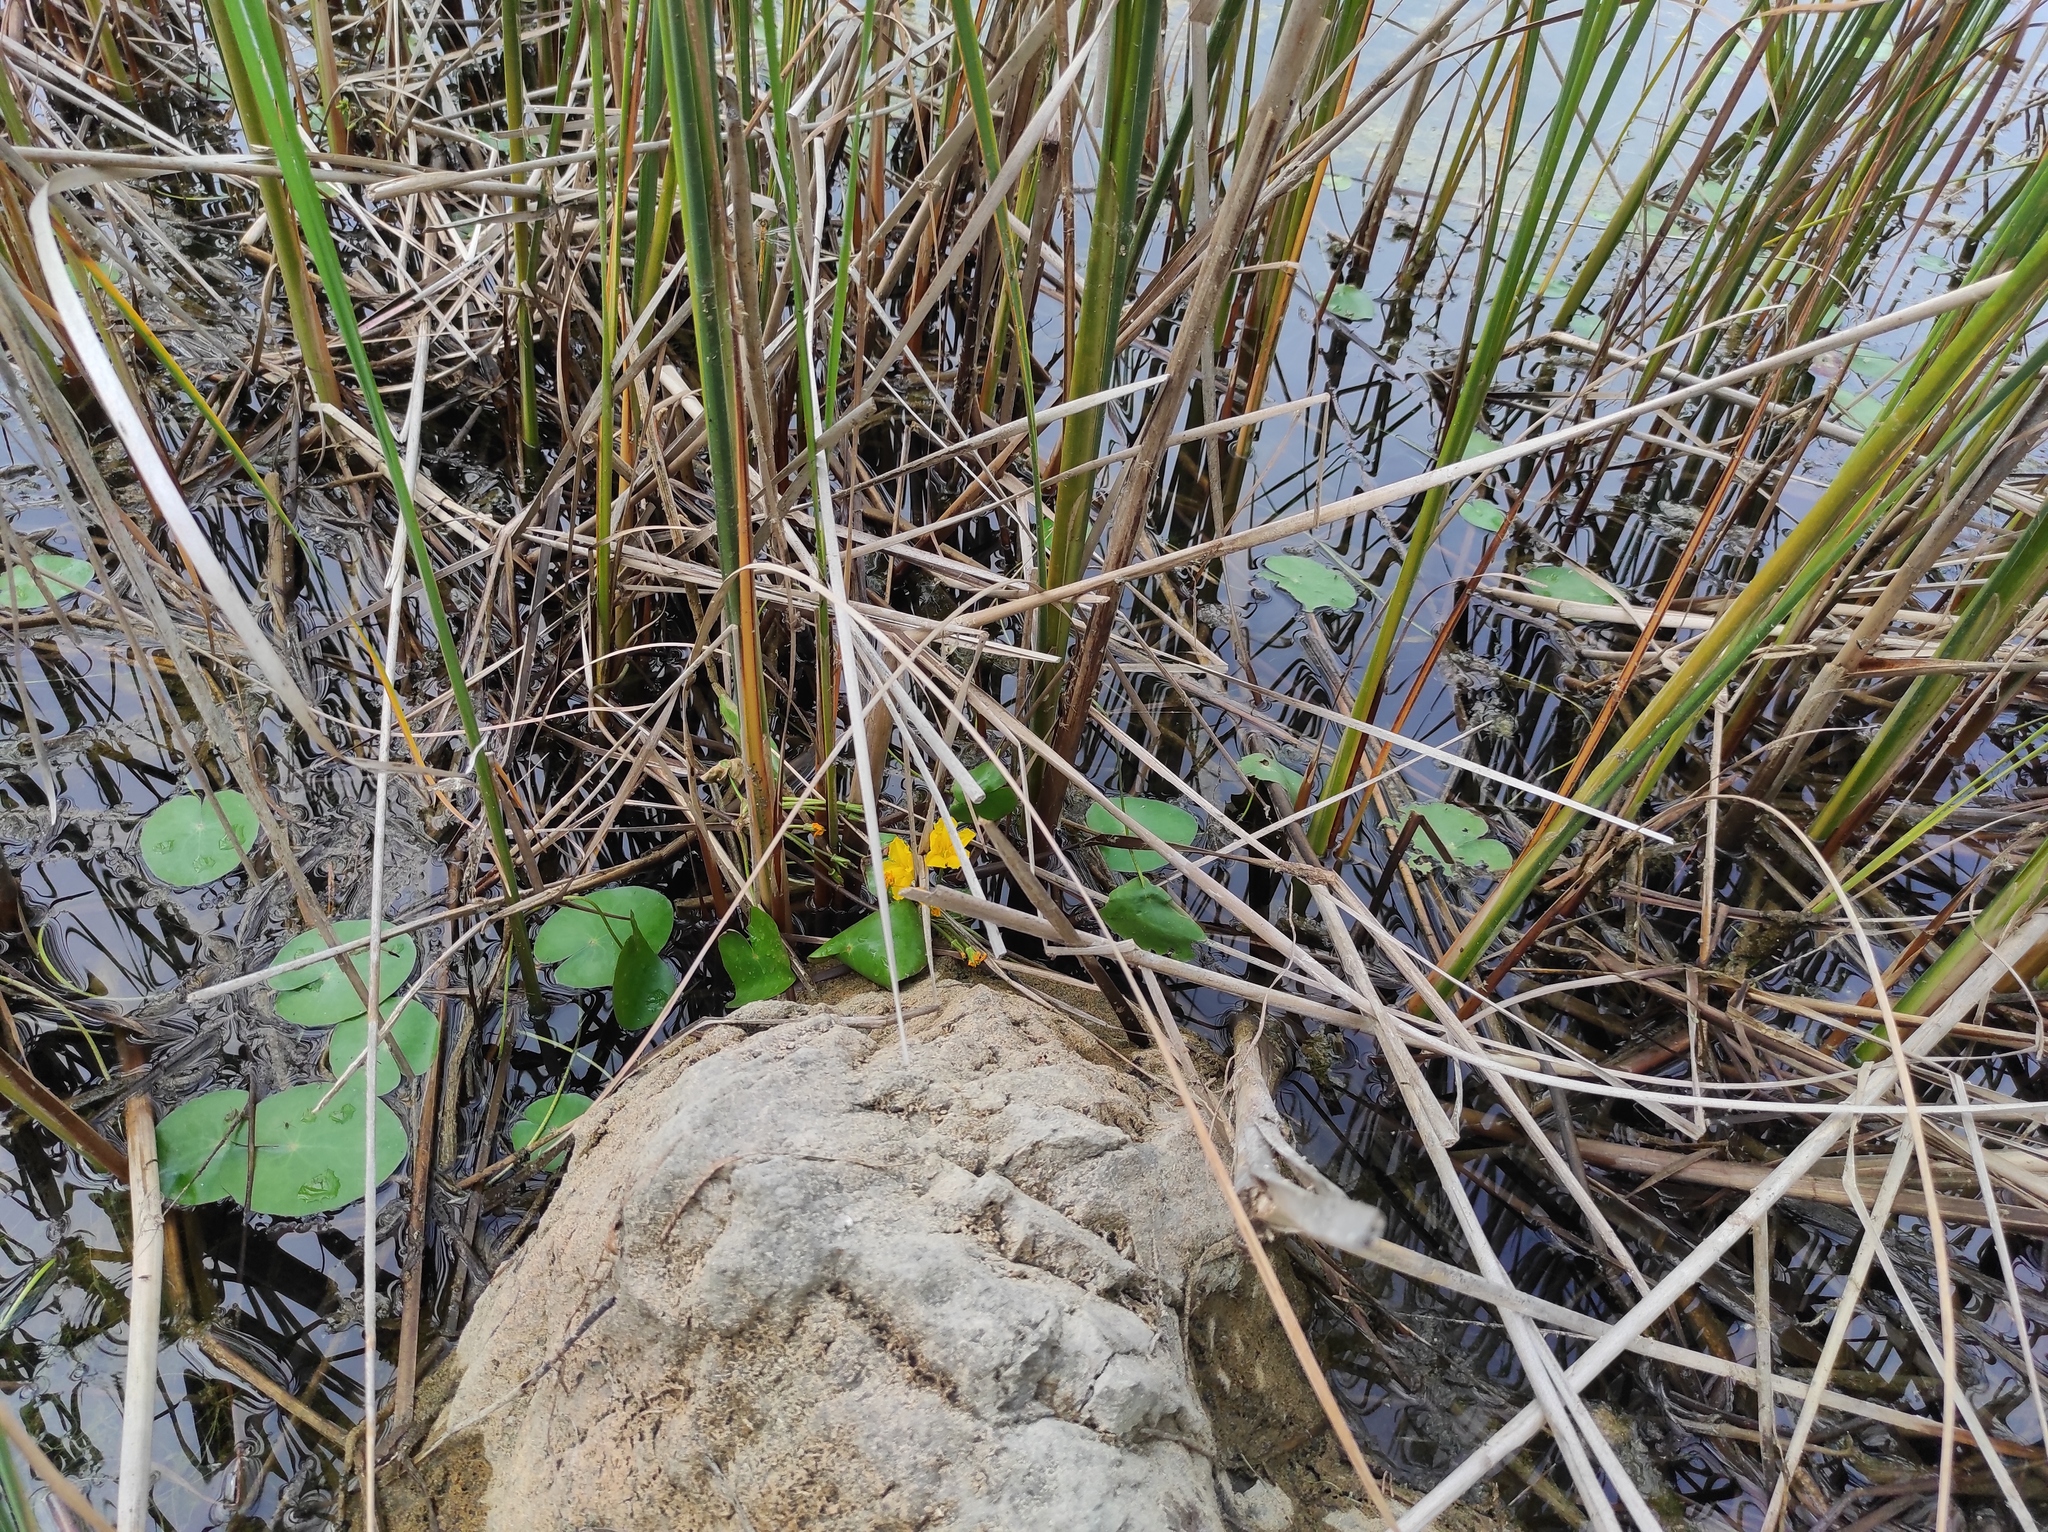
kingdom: Plantae
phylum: Tracheophyta
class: Magnoliopsida
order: Asterales
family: Menyanthaceae
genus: Nymphoides
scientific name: Nymphoides peltata
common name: Fringed water-lily
